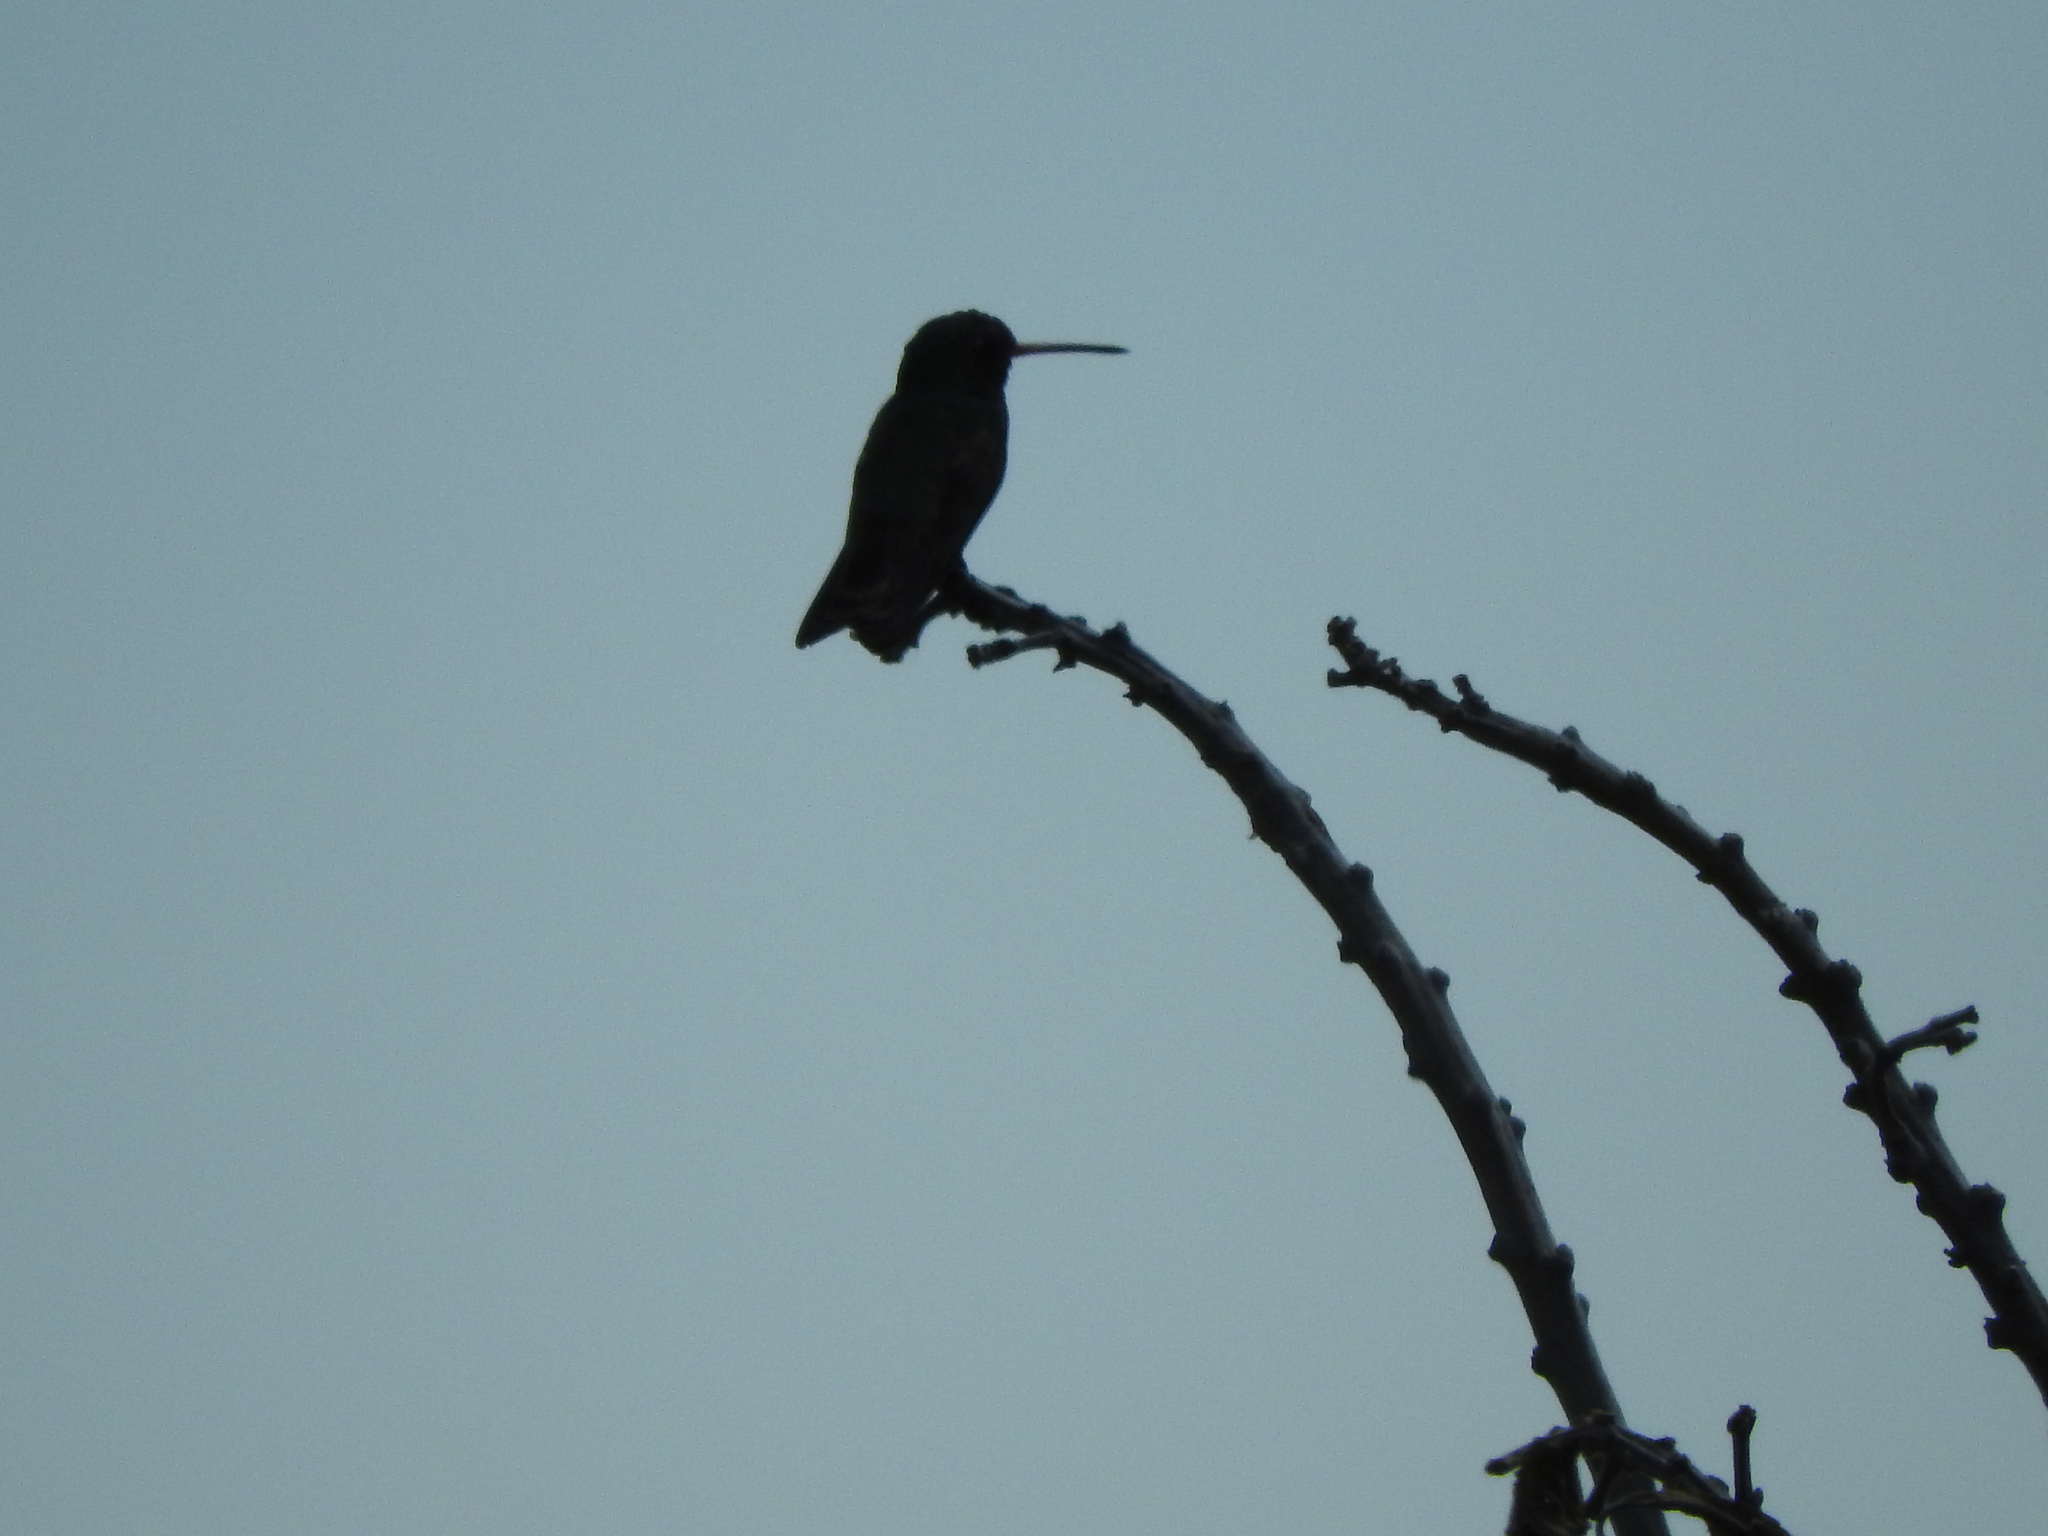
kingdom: Animalia
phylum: Chordata
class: Aves
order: Apodiformes
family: Trochilidae
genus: Cynanthus
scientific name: Cynanthus latirostris
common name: Broad-billed hummingbird
